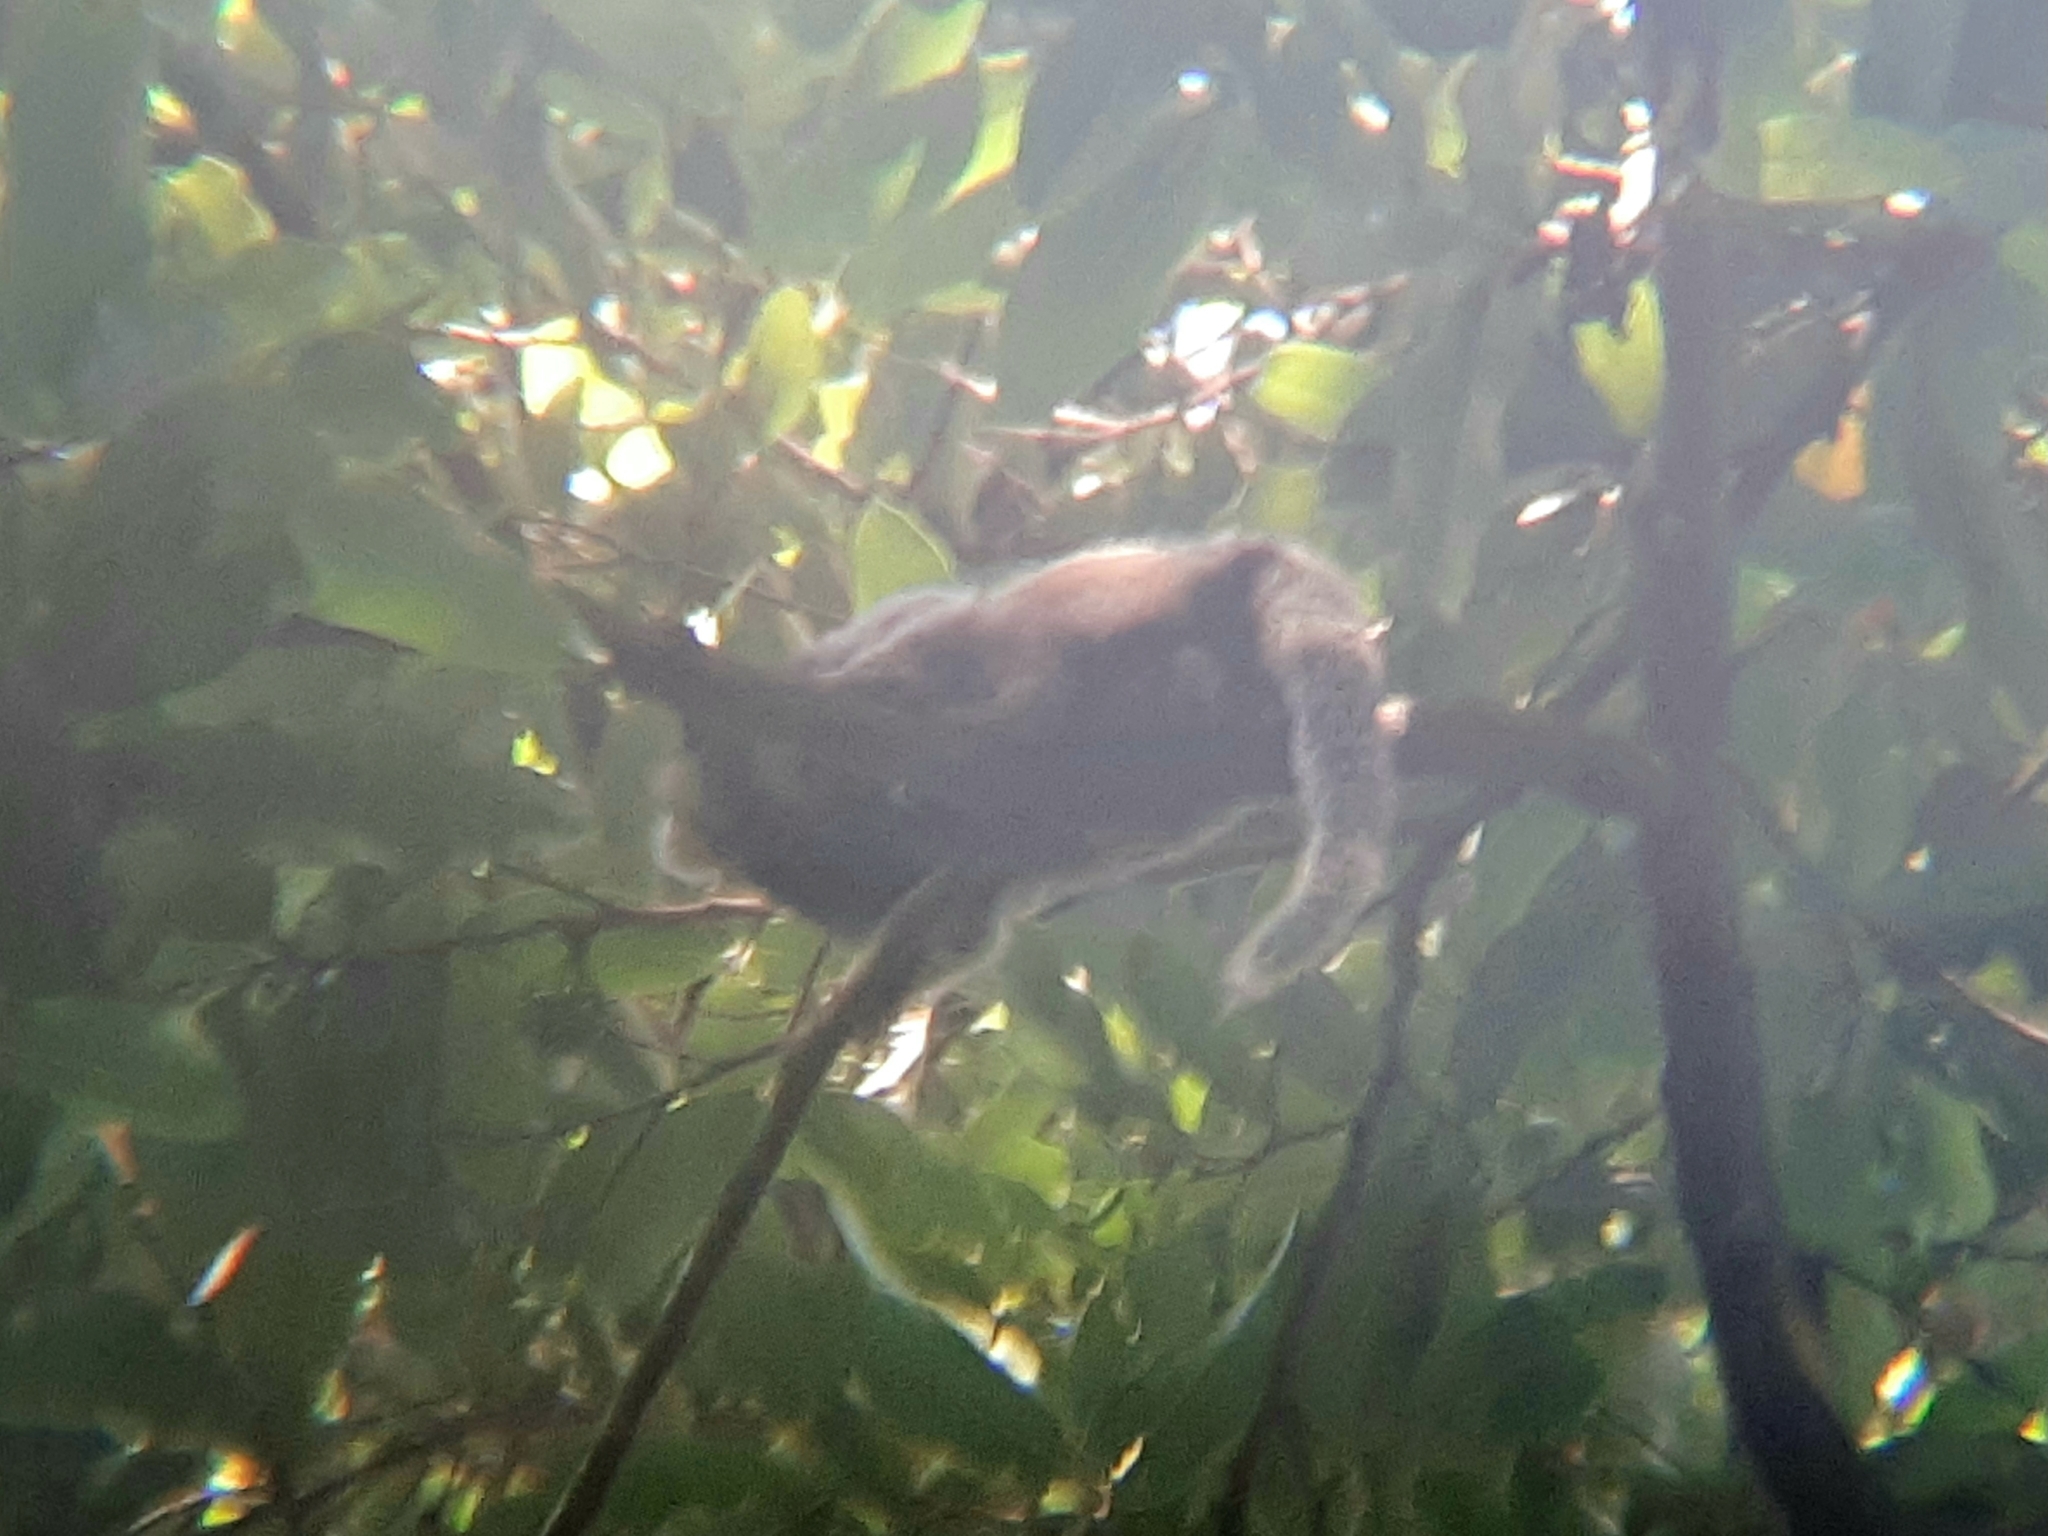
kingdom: Animalia
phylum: Chordata
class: Mammalia
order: Primates
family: Callitrichidae
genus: Callithrix
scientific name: Callithrix penicillata
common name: Black-tufted marmoset
